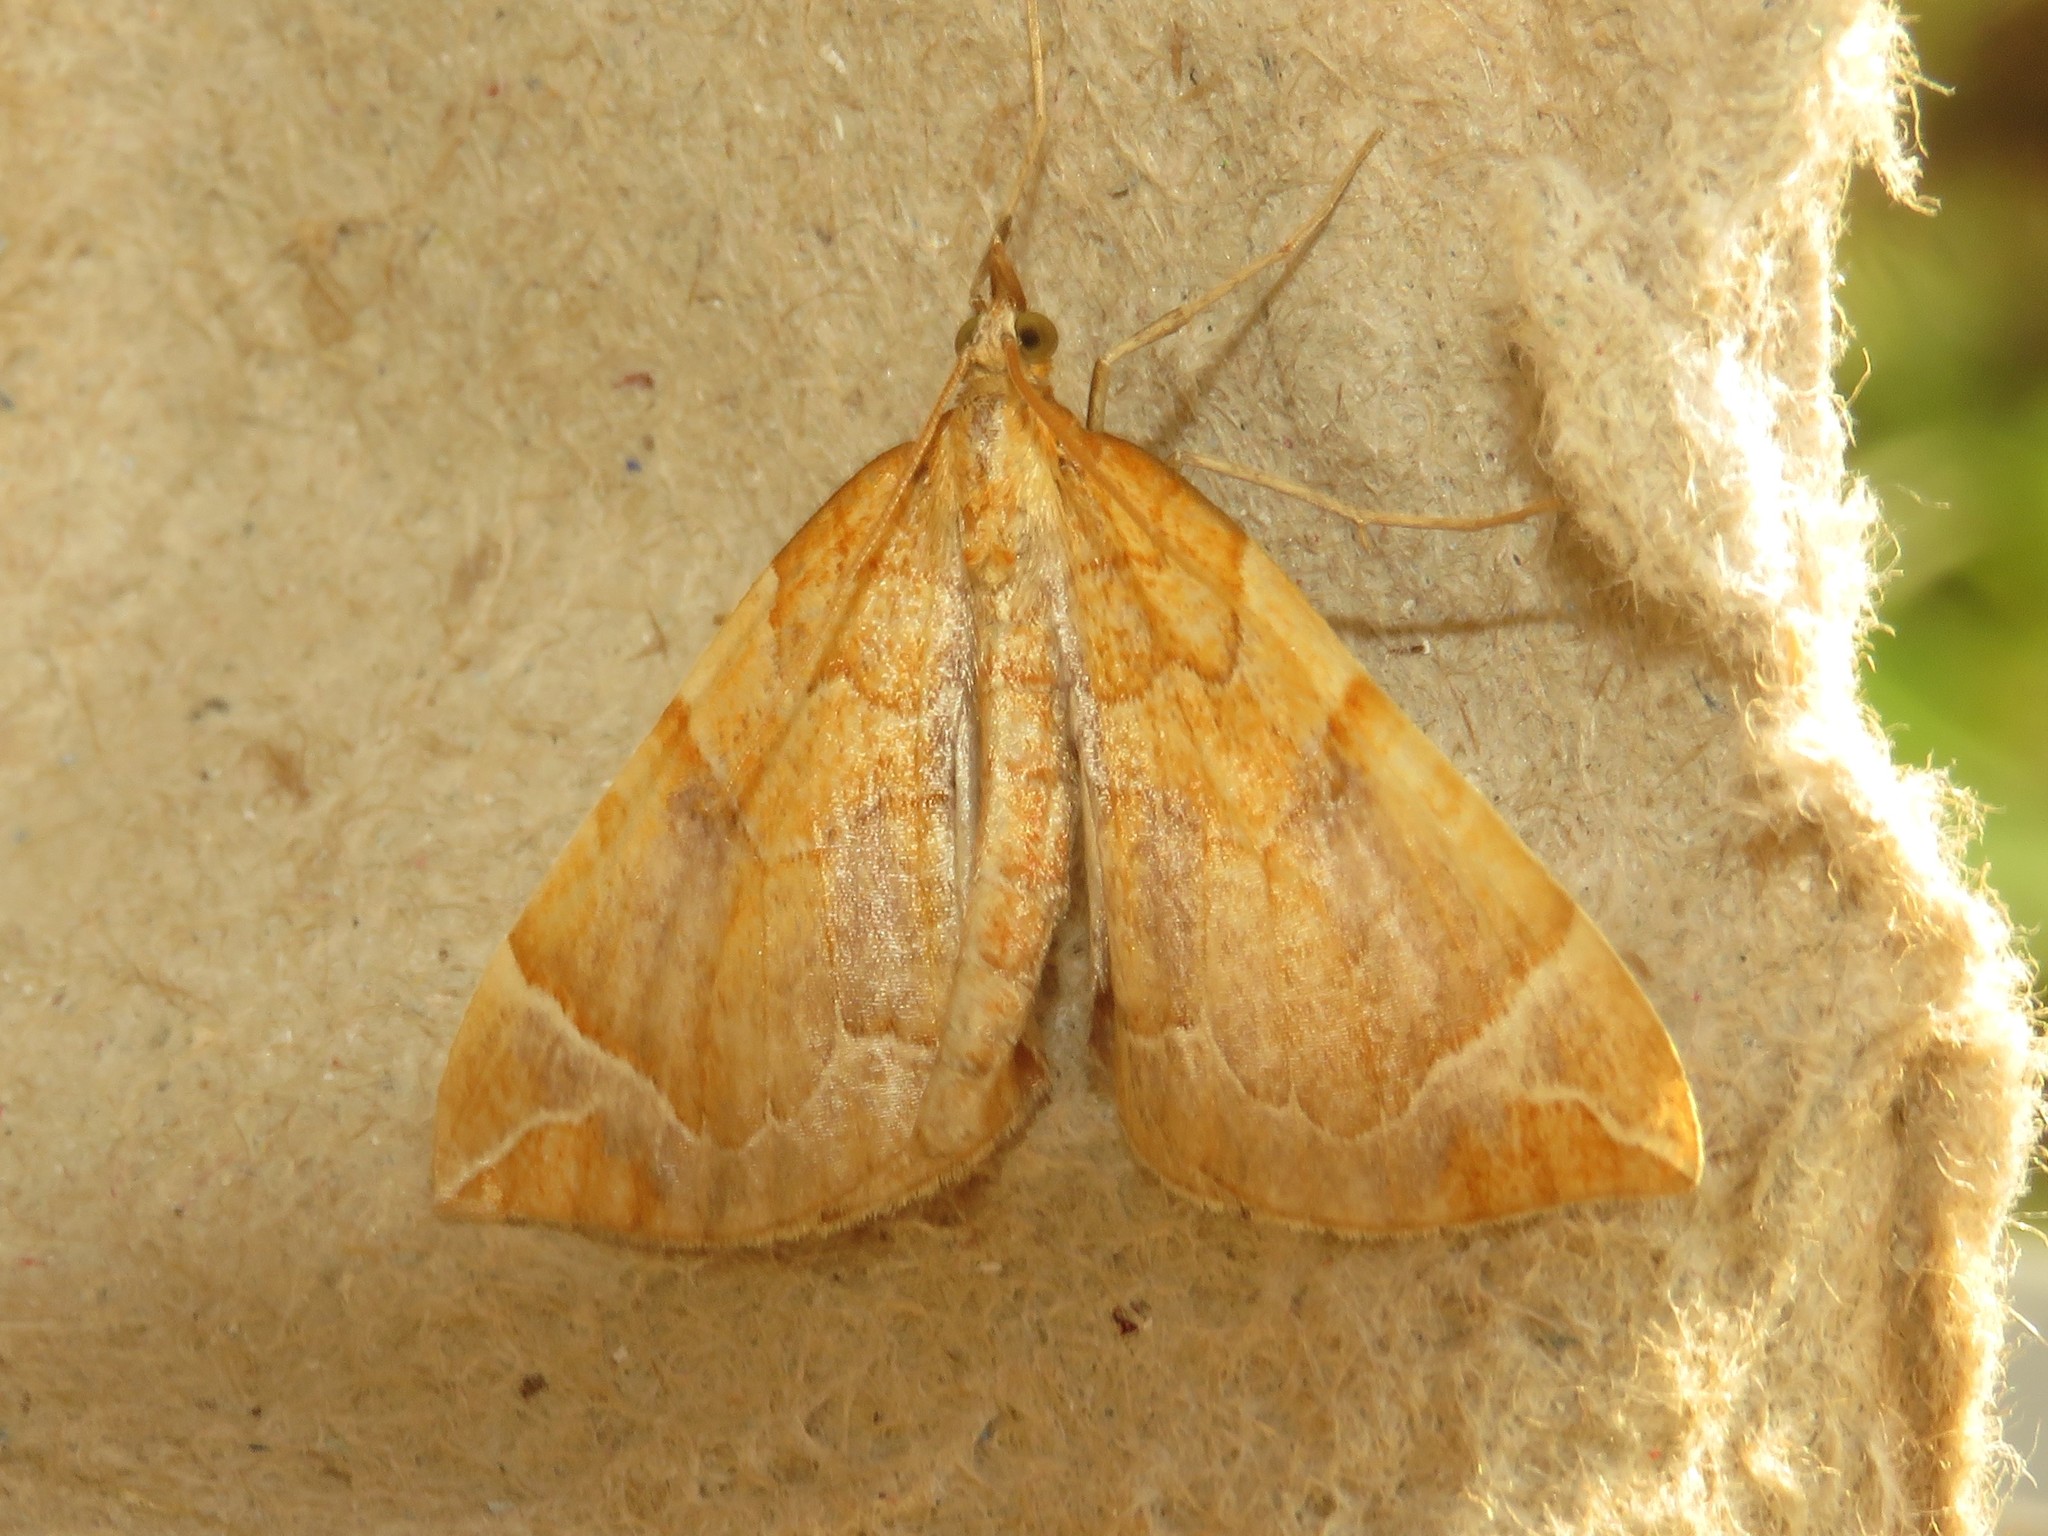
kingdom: Animalia
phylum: Arthropoda
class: Insecta
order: Lepidoptera
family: Geometridae
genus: Eulithis
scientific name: Eulithis testata
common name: Chevron
